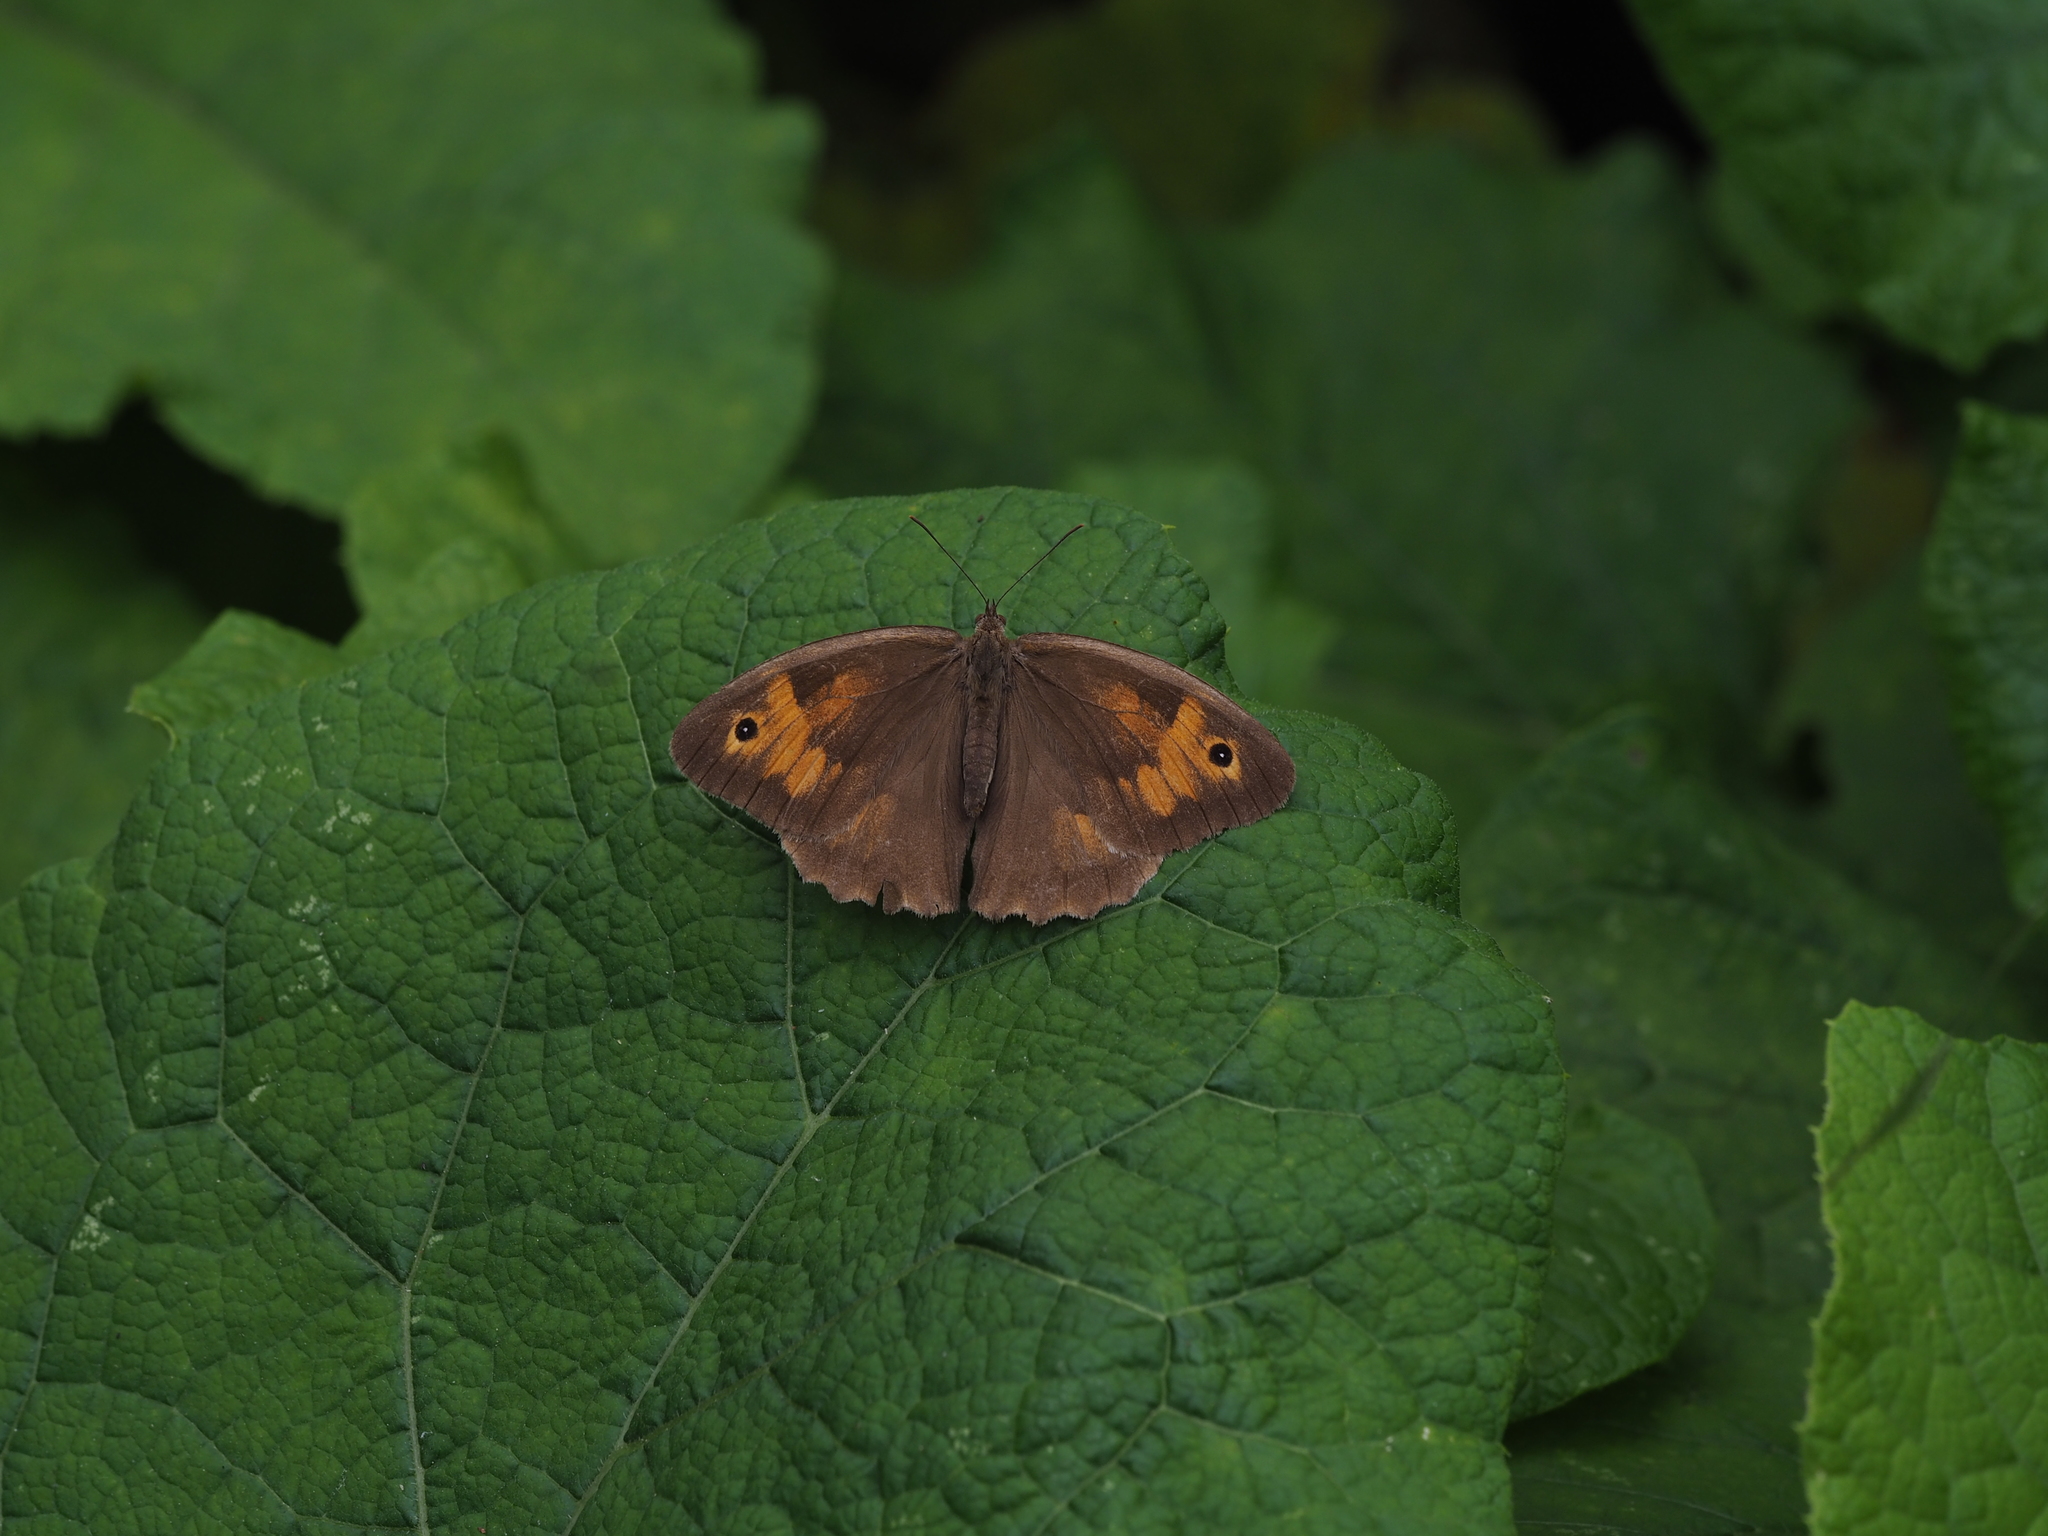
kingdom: Animalia
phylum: Arthropoda
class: Insecta
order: Lepidoptera
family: Nymphalidae
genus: Maniola
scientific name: Maniola jurtina
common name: Meadow brown
